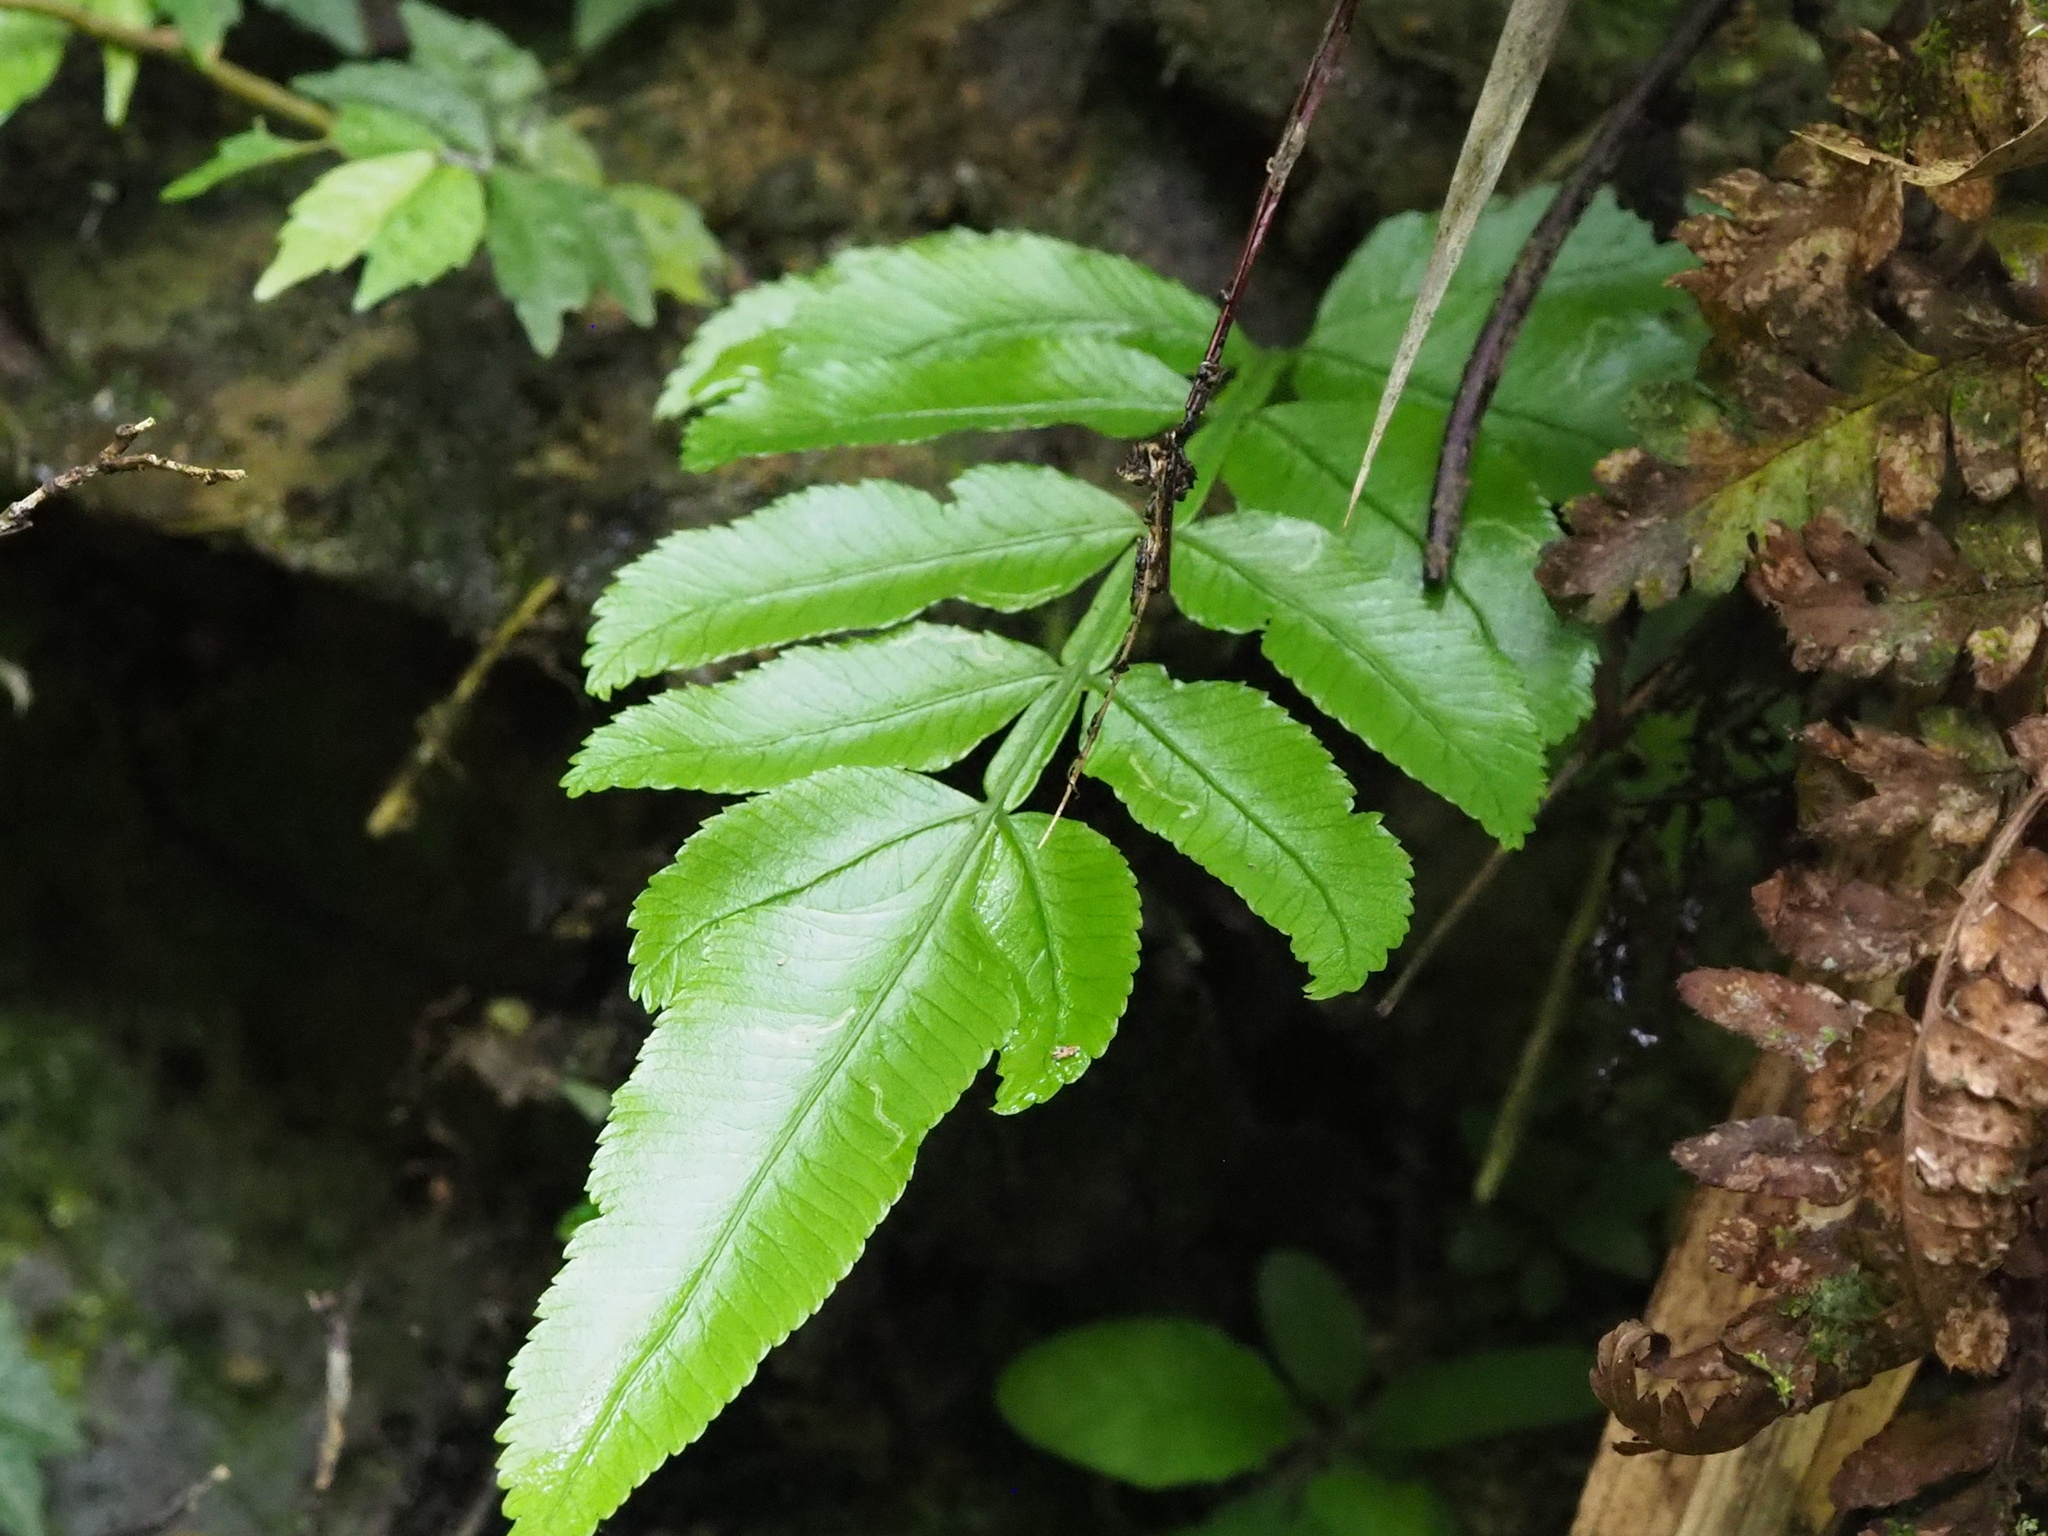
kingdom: Plantae
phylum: Tracheophyta
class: Polypodiopsida
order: Marattiales
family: Marattiaceae
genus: Angiopteris
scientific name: Angiopteris lygodiifolia
